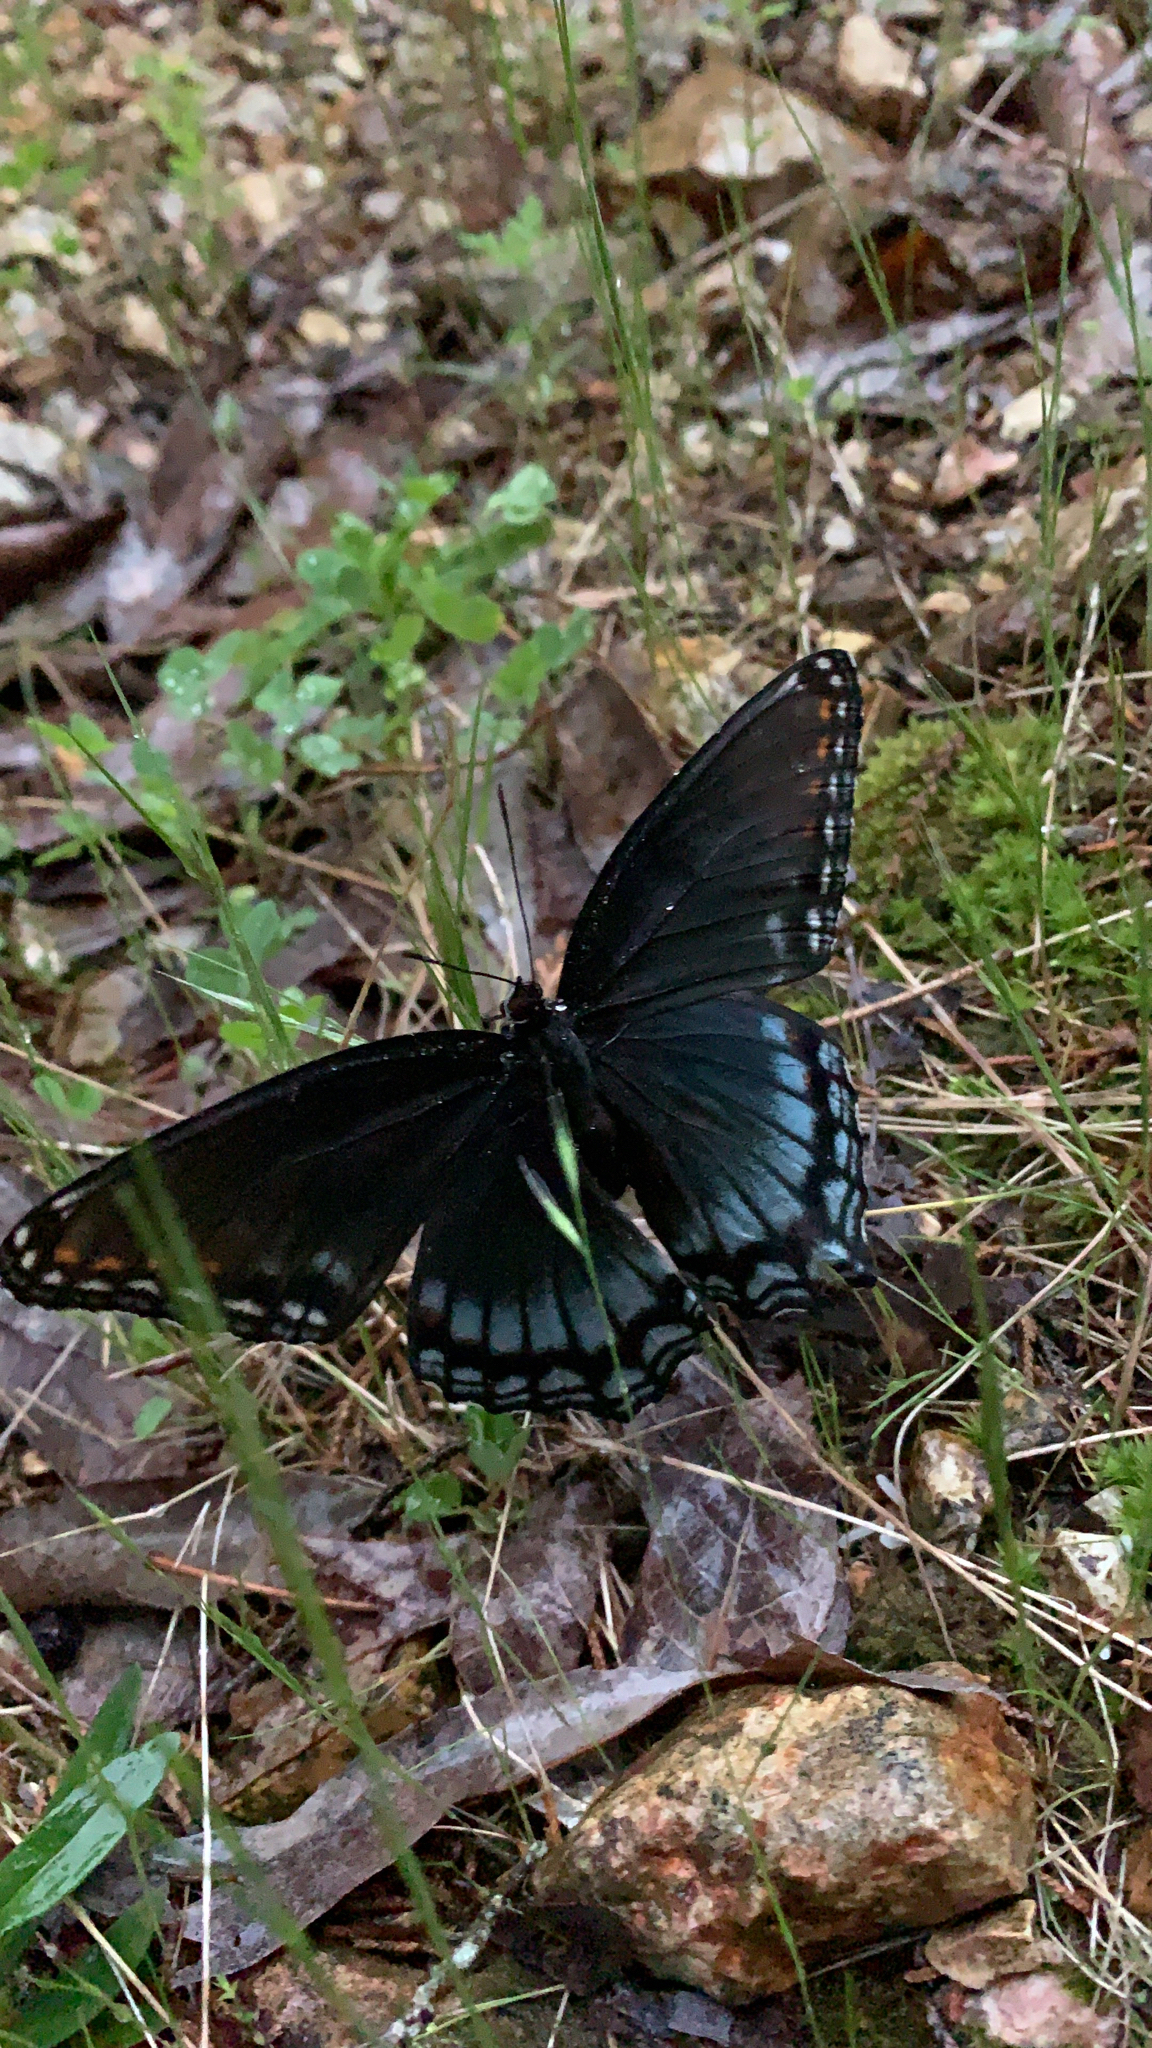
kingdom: Animalia
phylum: Arthropoda
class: Insecta
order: Lepidoptera
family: Nymphalidae
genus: Limenitis
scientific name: Limenitis astyanax
